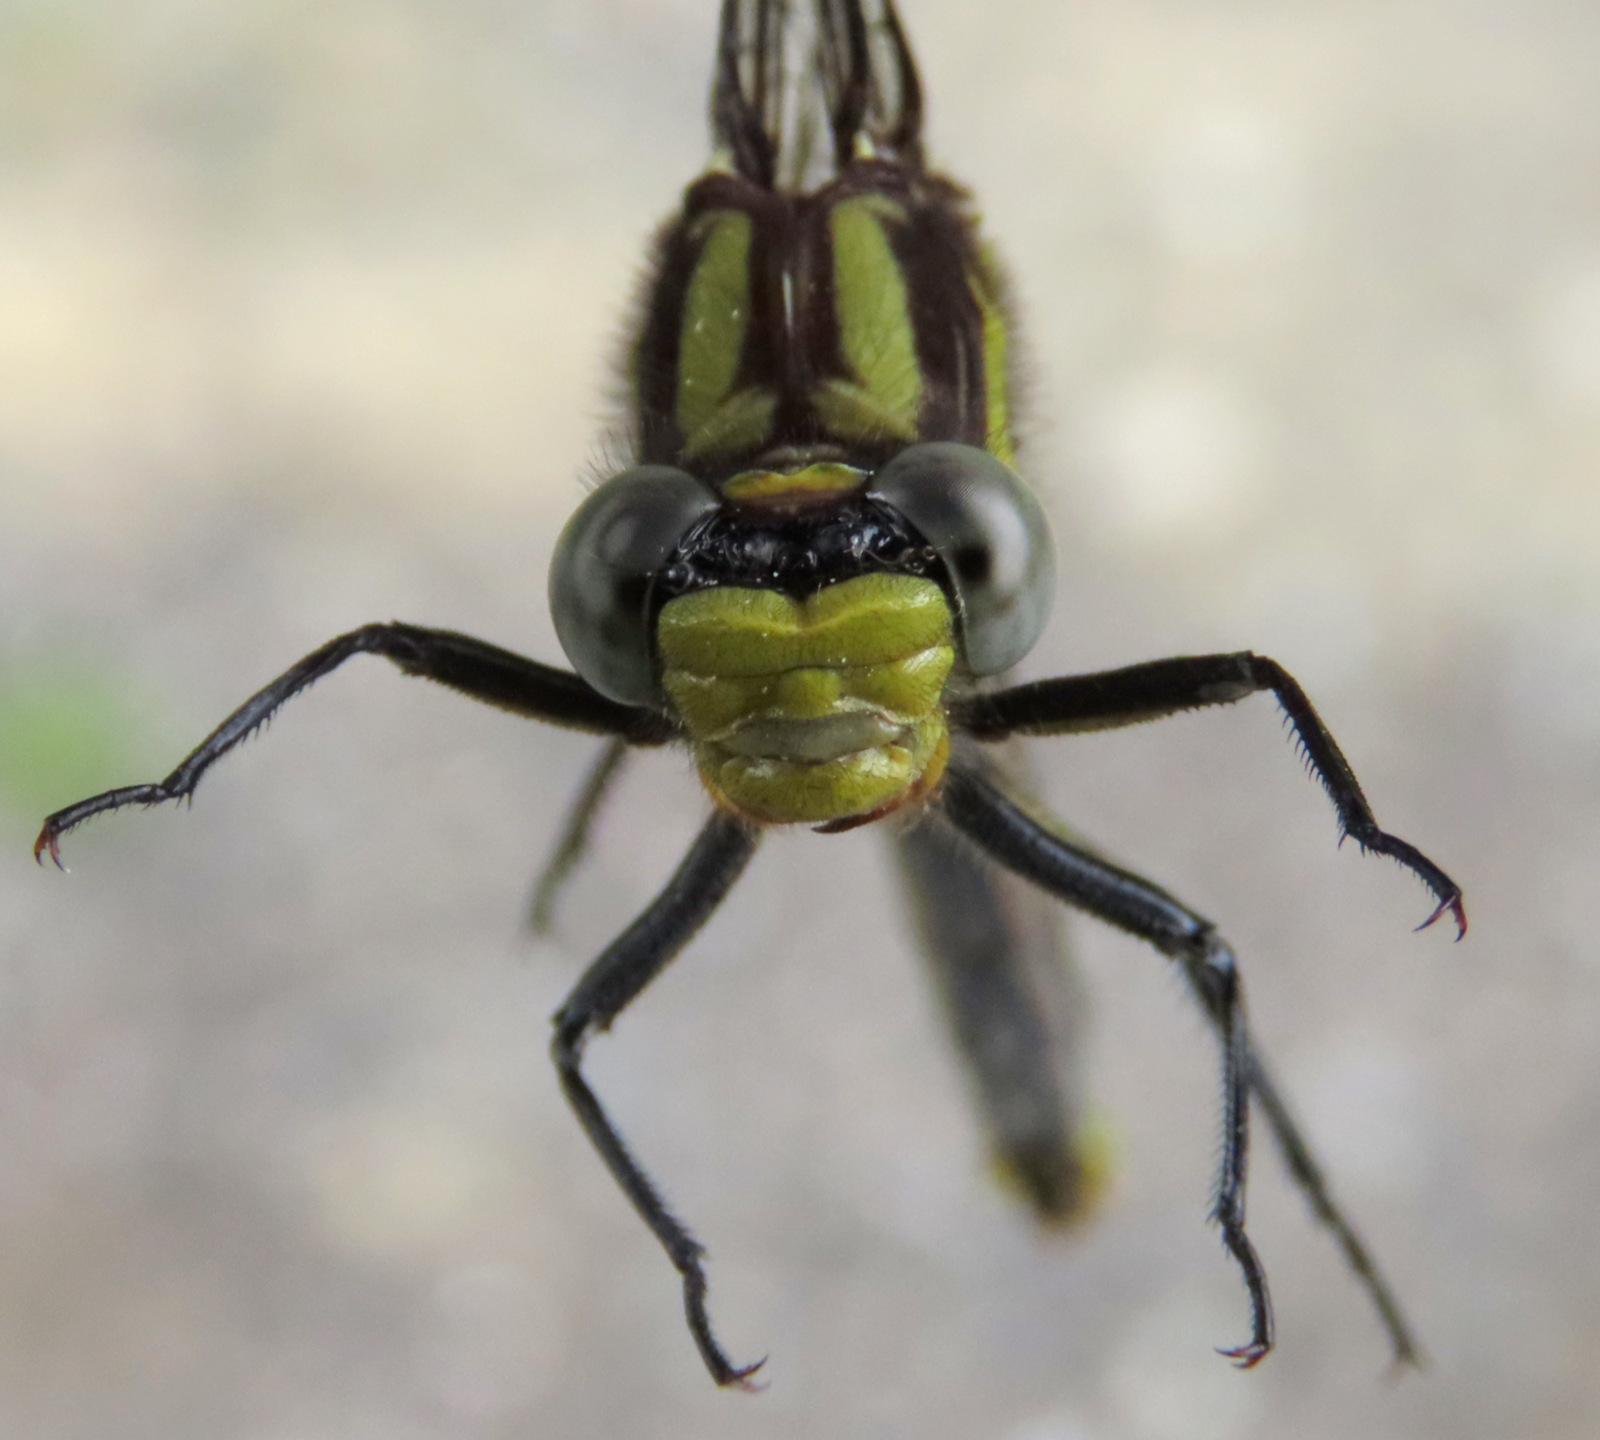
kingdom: Animalia
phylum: Arthropoda
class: Insecta
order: Odonata
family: Gomphidae
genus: Phanogomphus
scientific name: Phanogomphus descriptus
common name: Harpoon clubtail
